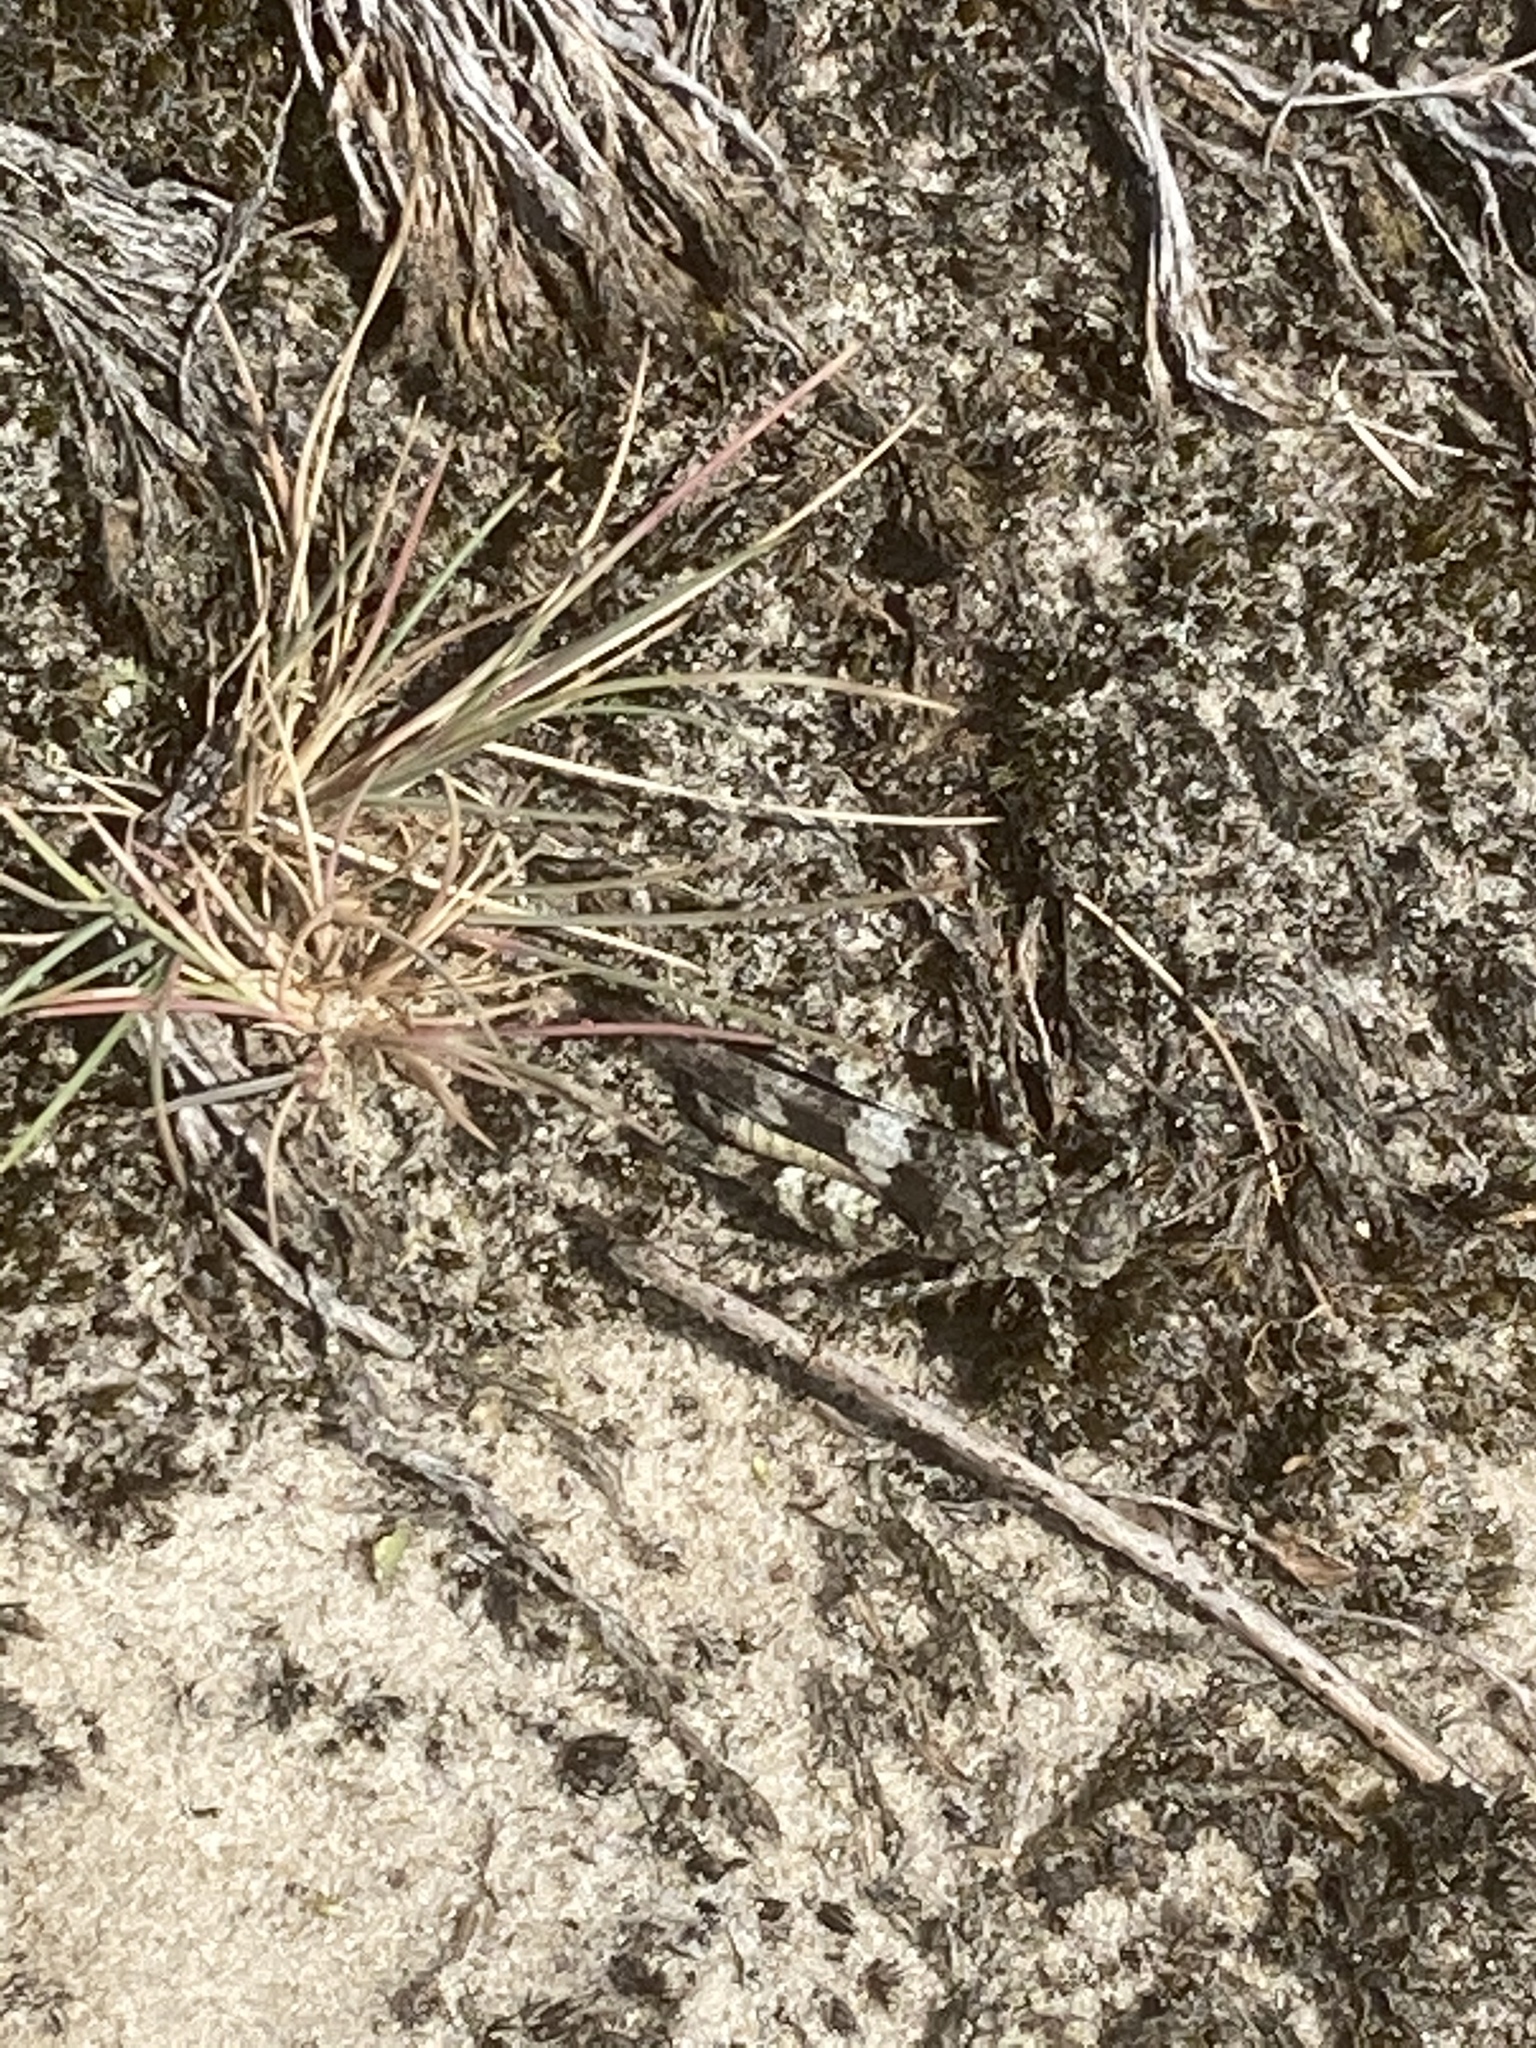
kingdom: Animalia
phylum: Arthropoda
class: Insecta
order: Orthoptera
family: Acrididae
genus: Oedipoda
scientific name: Oedipoda caerulescens
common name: Blue-winged grasshopper
